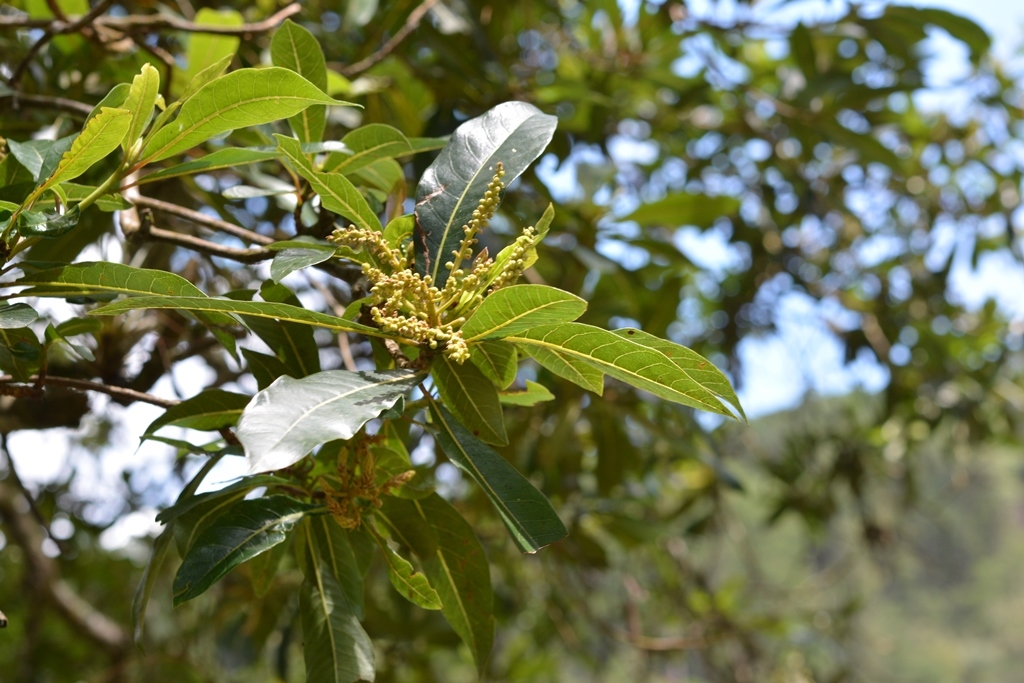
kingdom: Plantae
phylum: Tracheophyta
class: Magnoliopsida
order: Ericales
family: Clethraceae
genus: Clethra
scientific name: Clethra suaveolens
